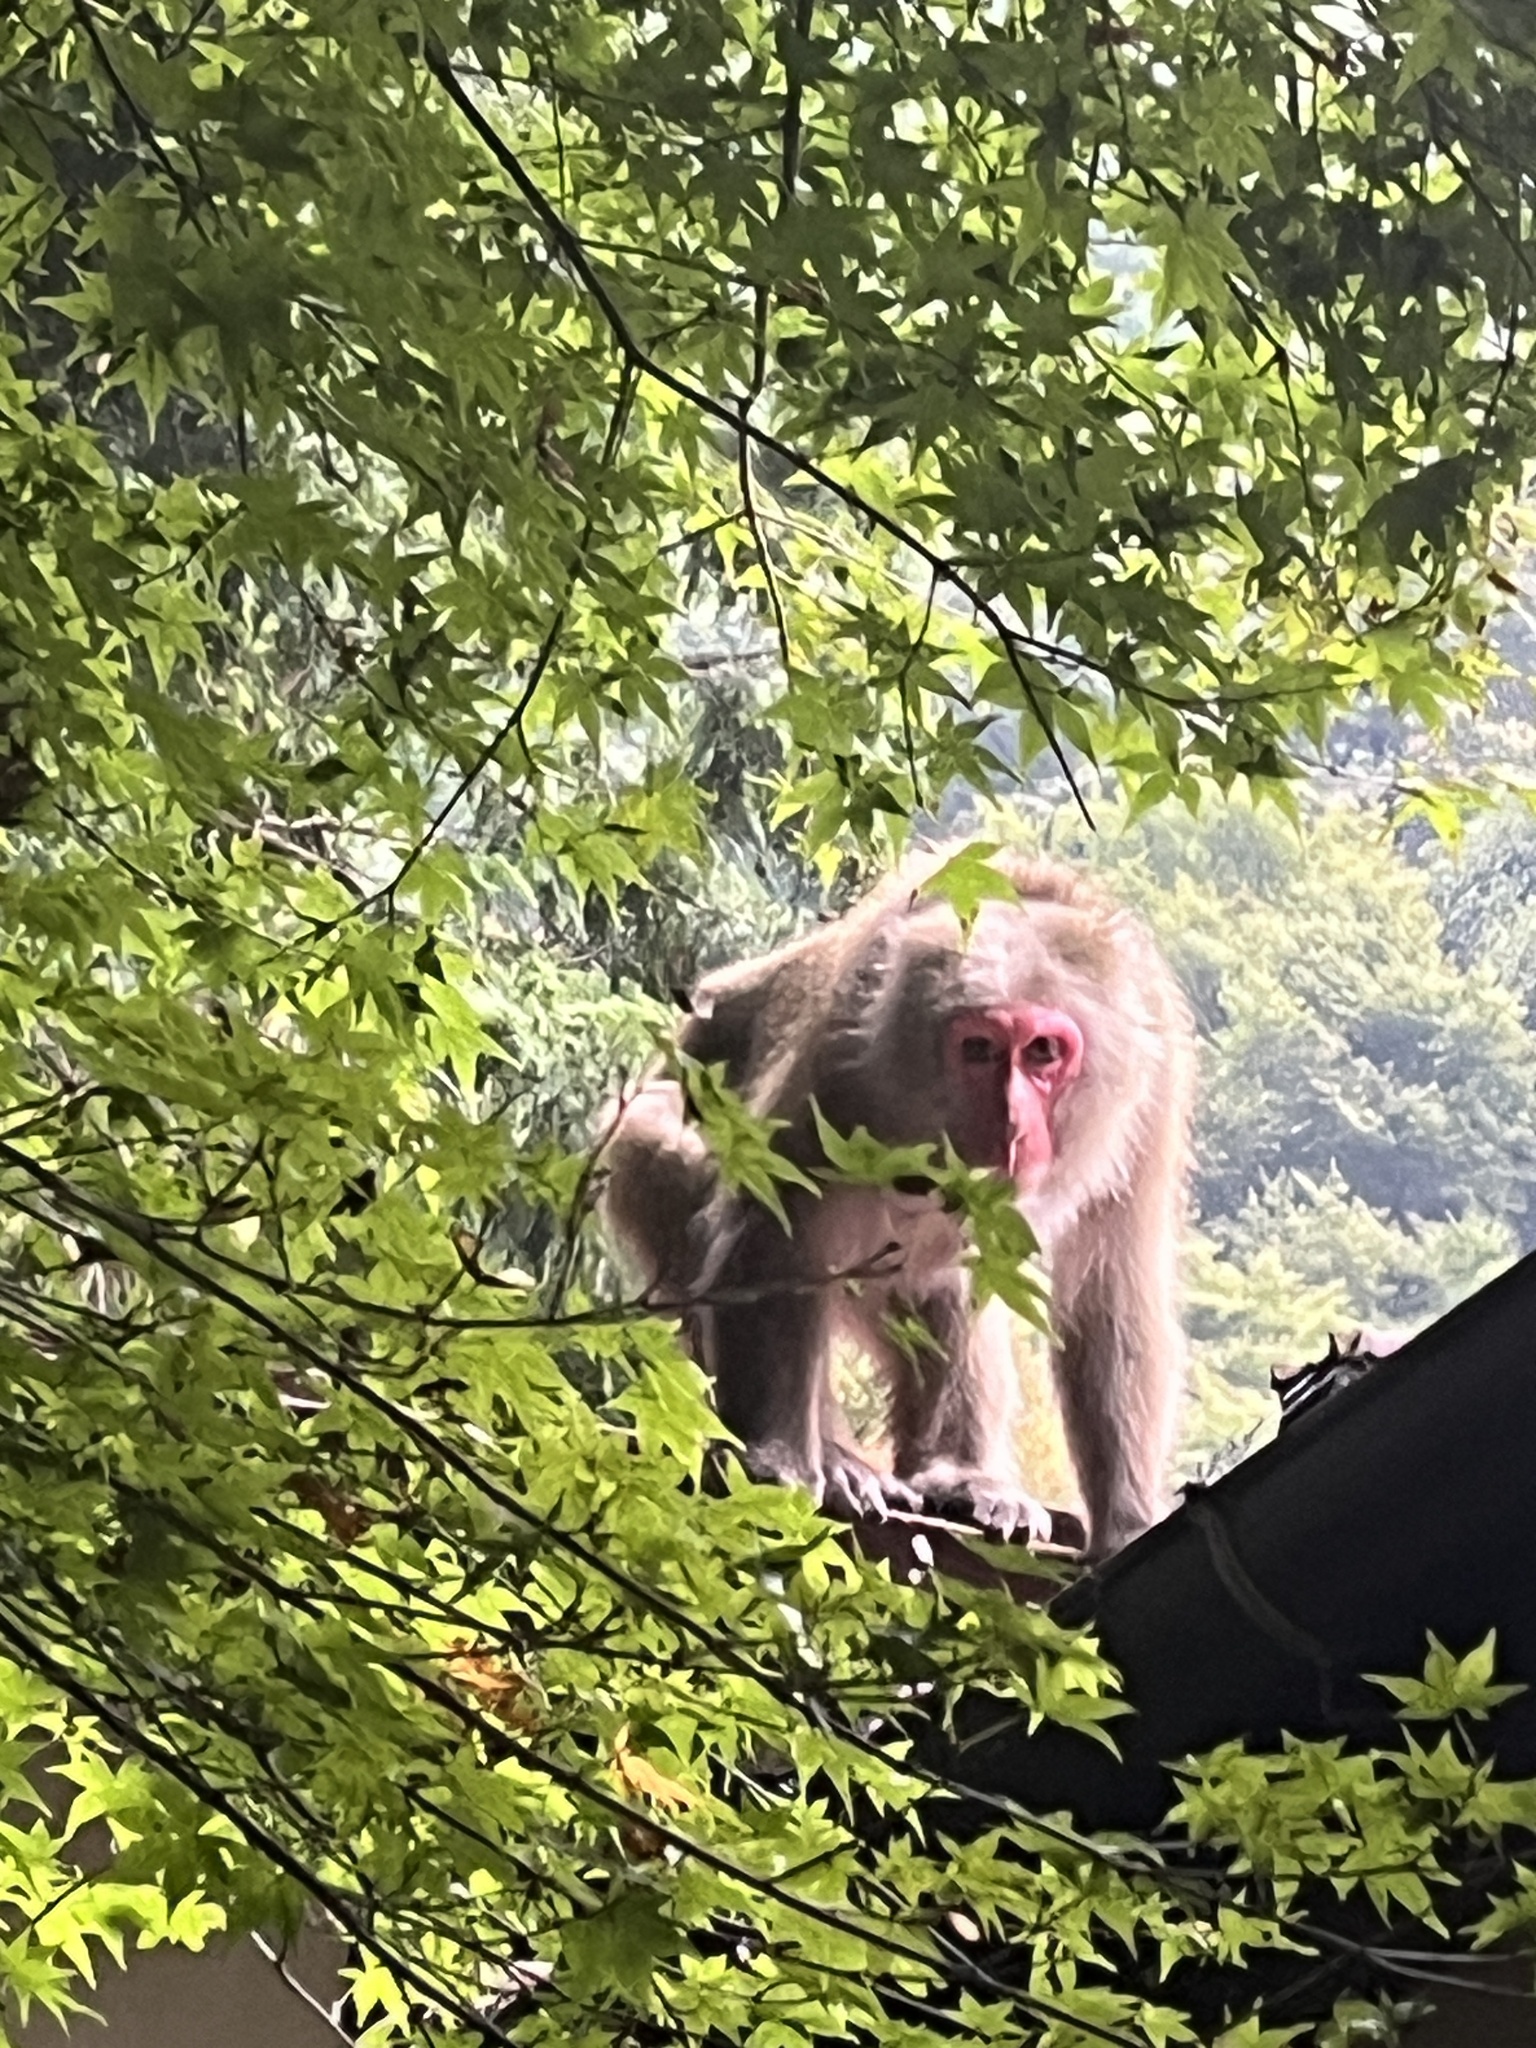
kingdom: Animalia
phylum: Chordata
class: Mammalia
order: Primates
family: Cercopithecidae
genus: Macaca
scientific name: Macaca fuscata
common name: Japanese macaque
